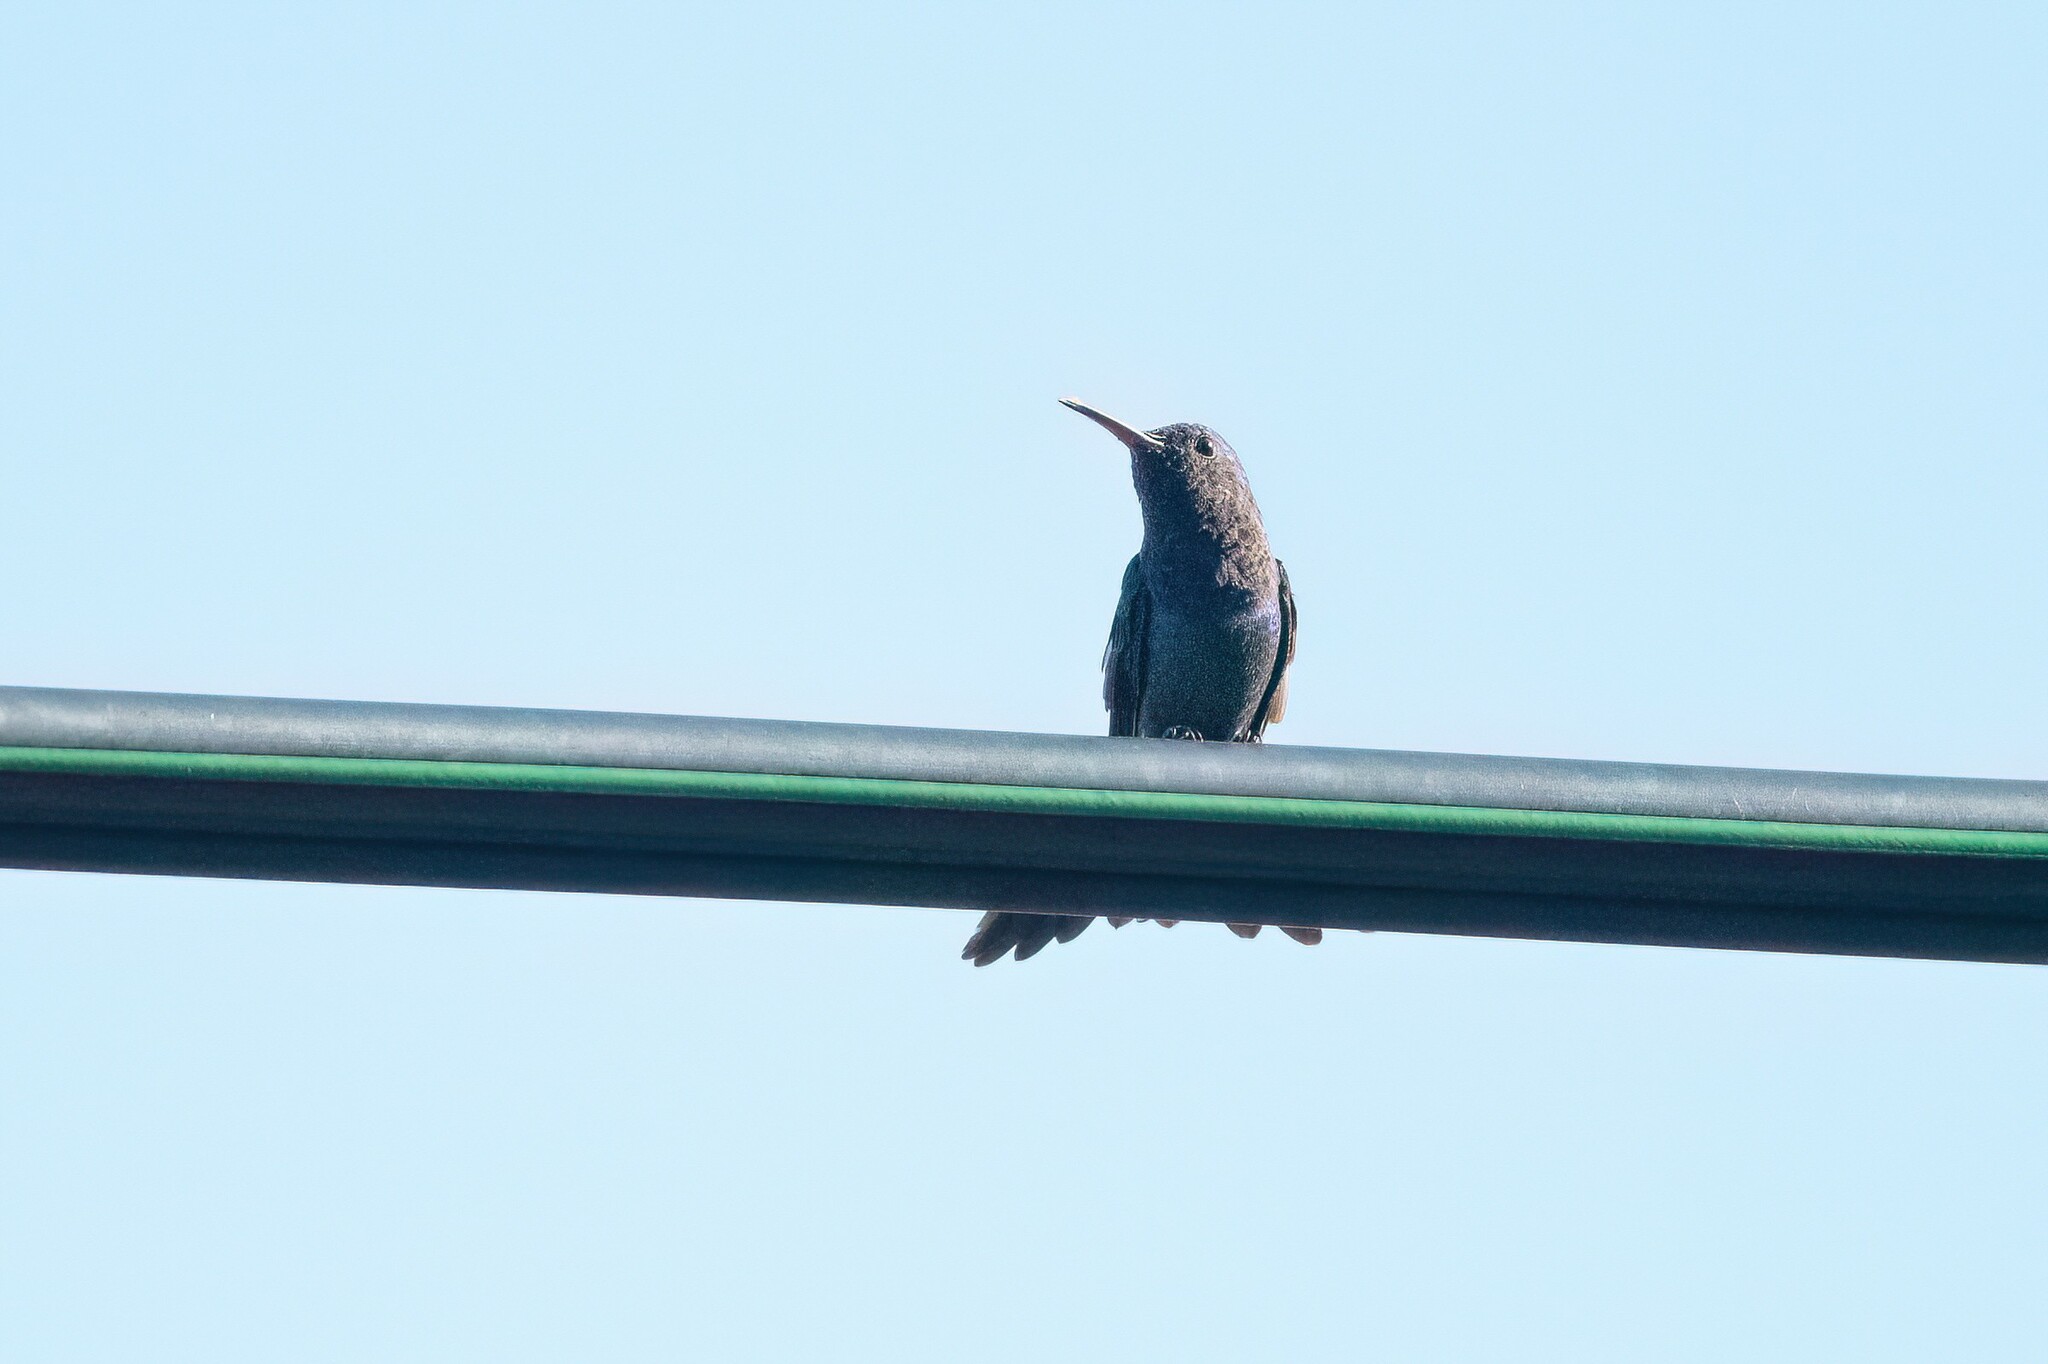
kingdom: Animalia
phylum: Chordata
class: Aves
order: Apodiformes
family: Trochilidae
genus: Chrysuronia
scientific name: Chrysuronia coeruleogularis
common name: Sapphire-throated hummingbird
